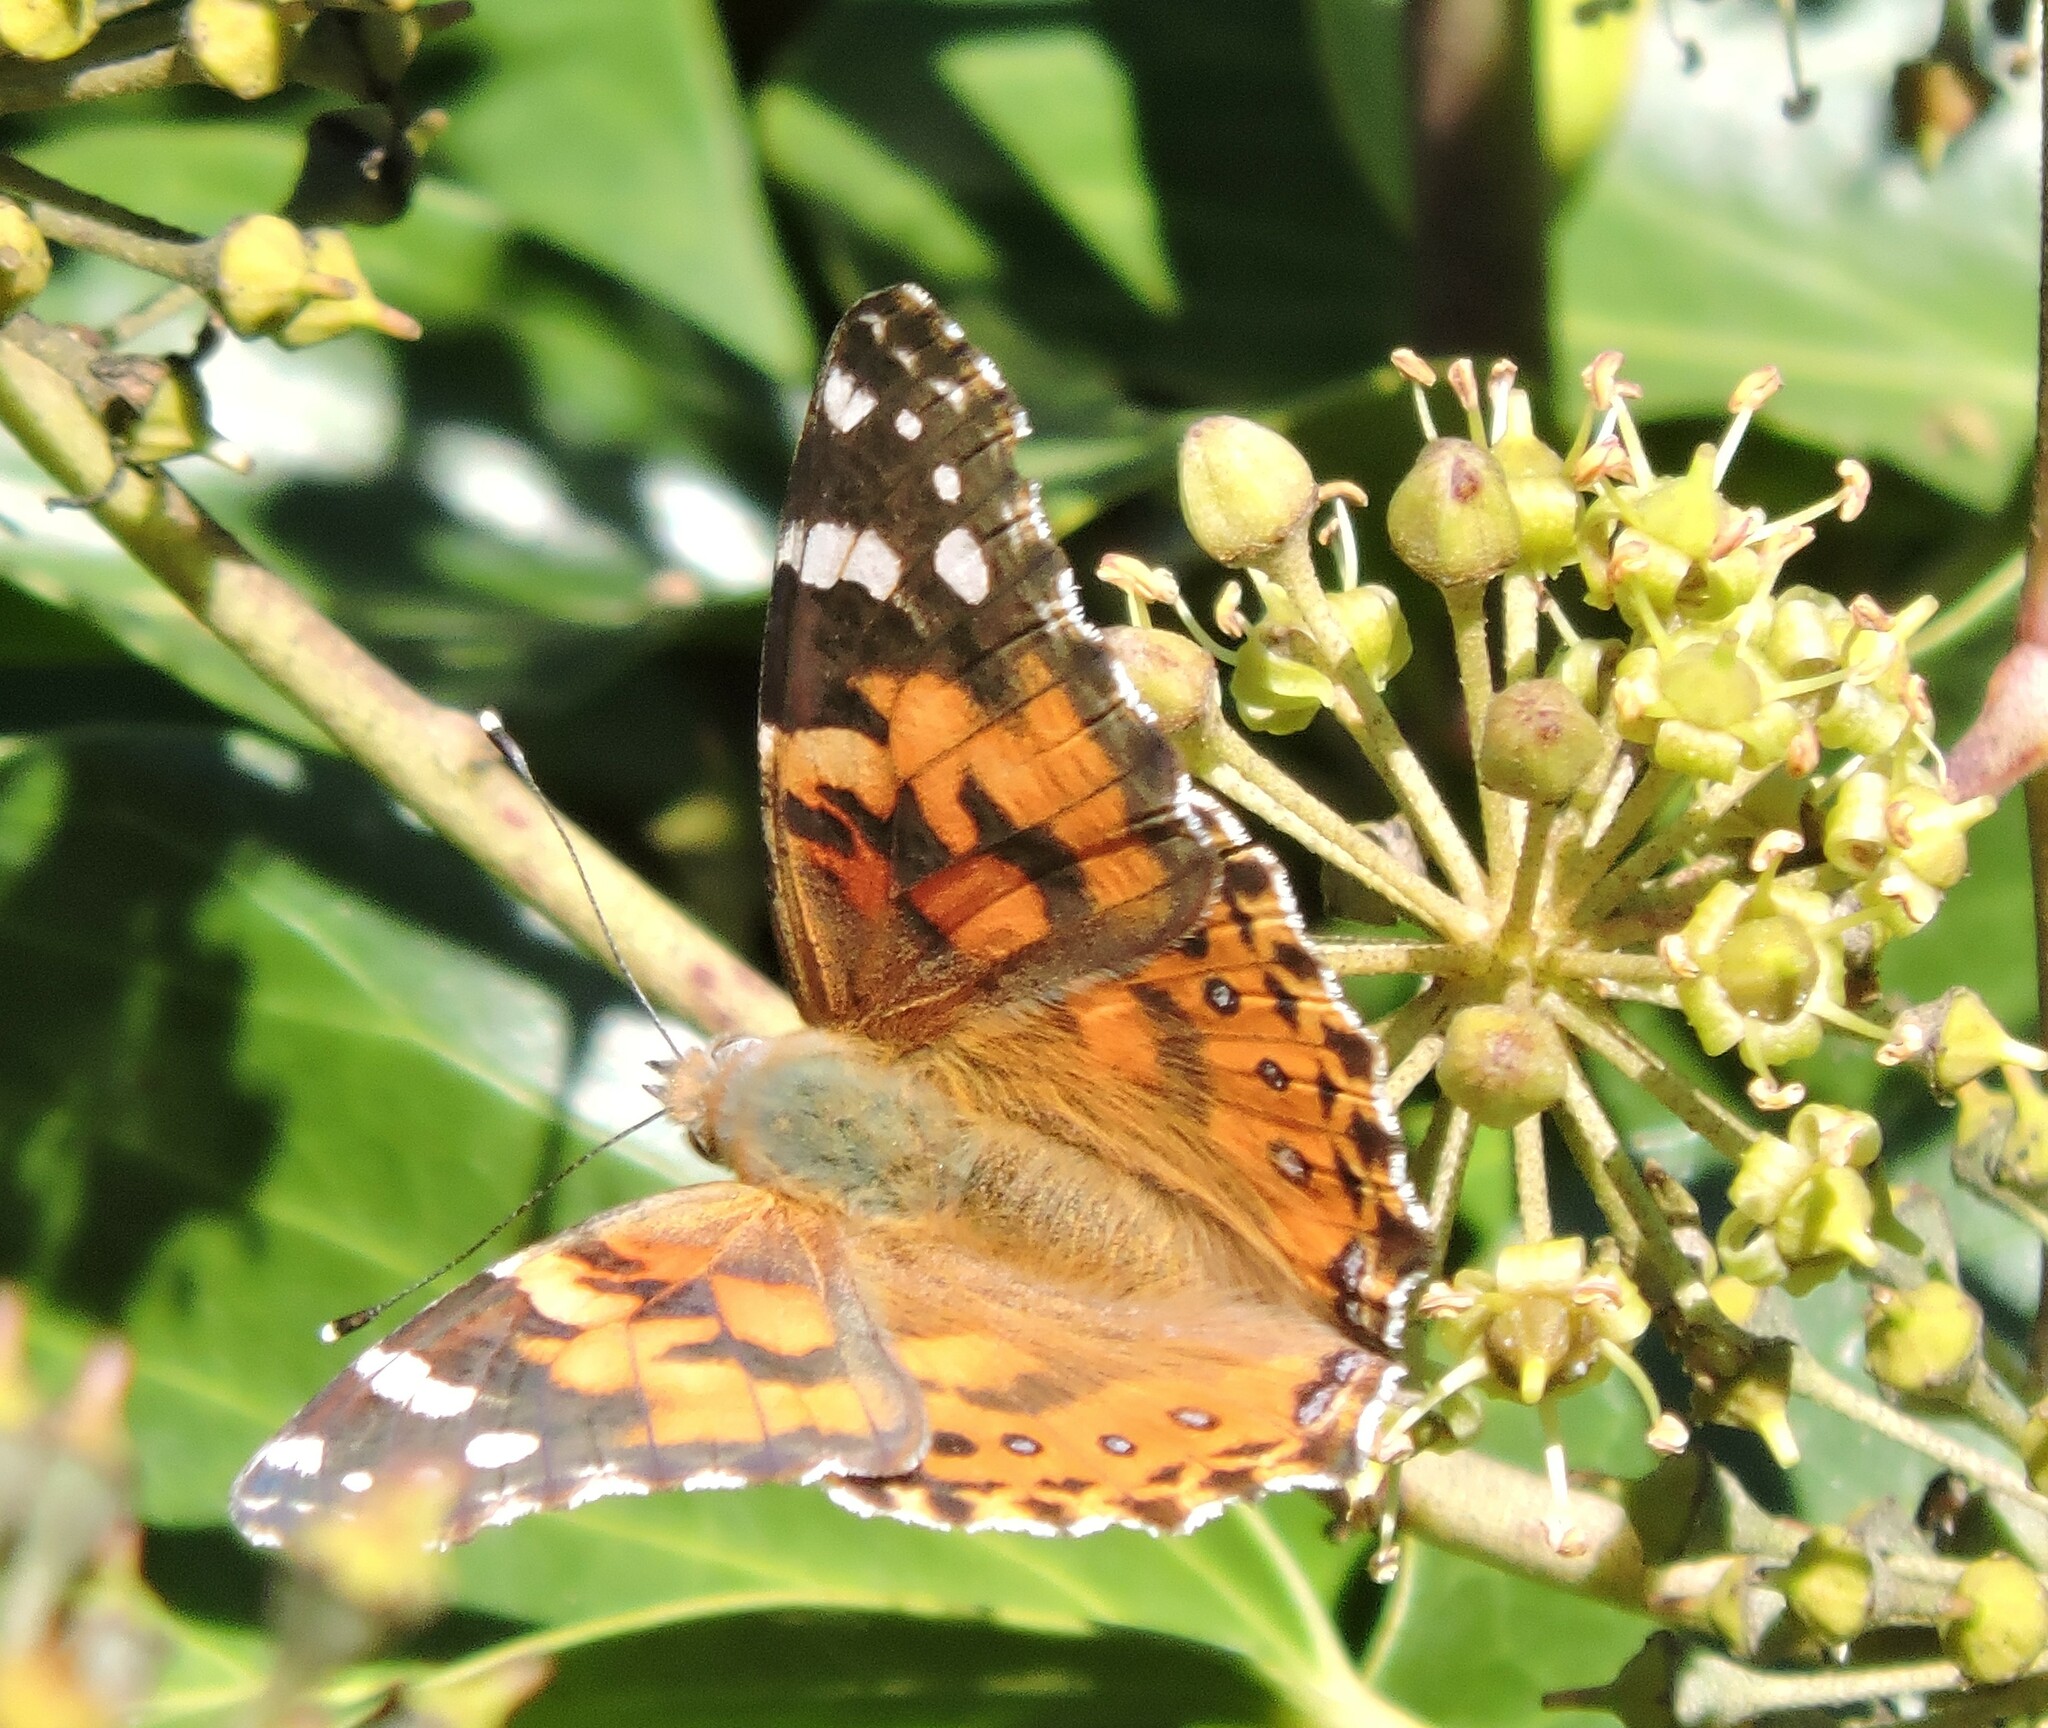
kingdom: Animalia
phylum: Arthropoda
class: Insecta
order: Lepidoptera
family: Nymphalidae
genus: Vanessa
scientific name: Vanessa cardui
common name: Painted lady
